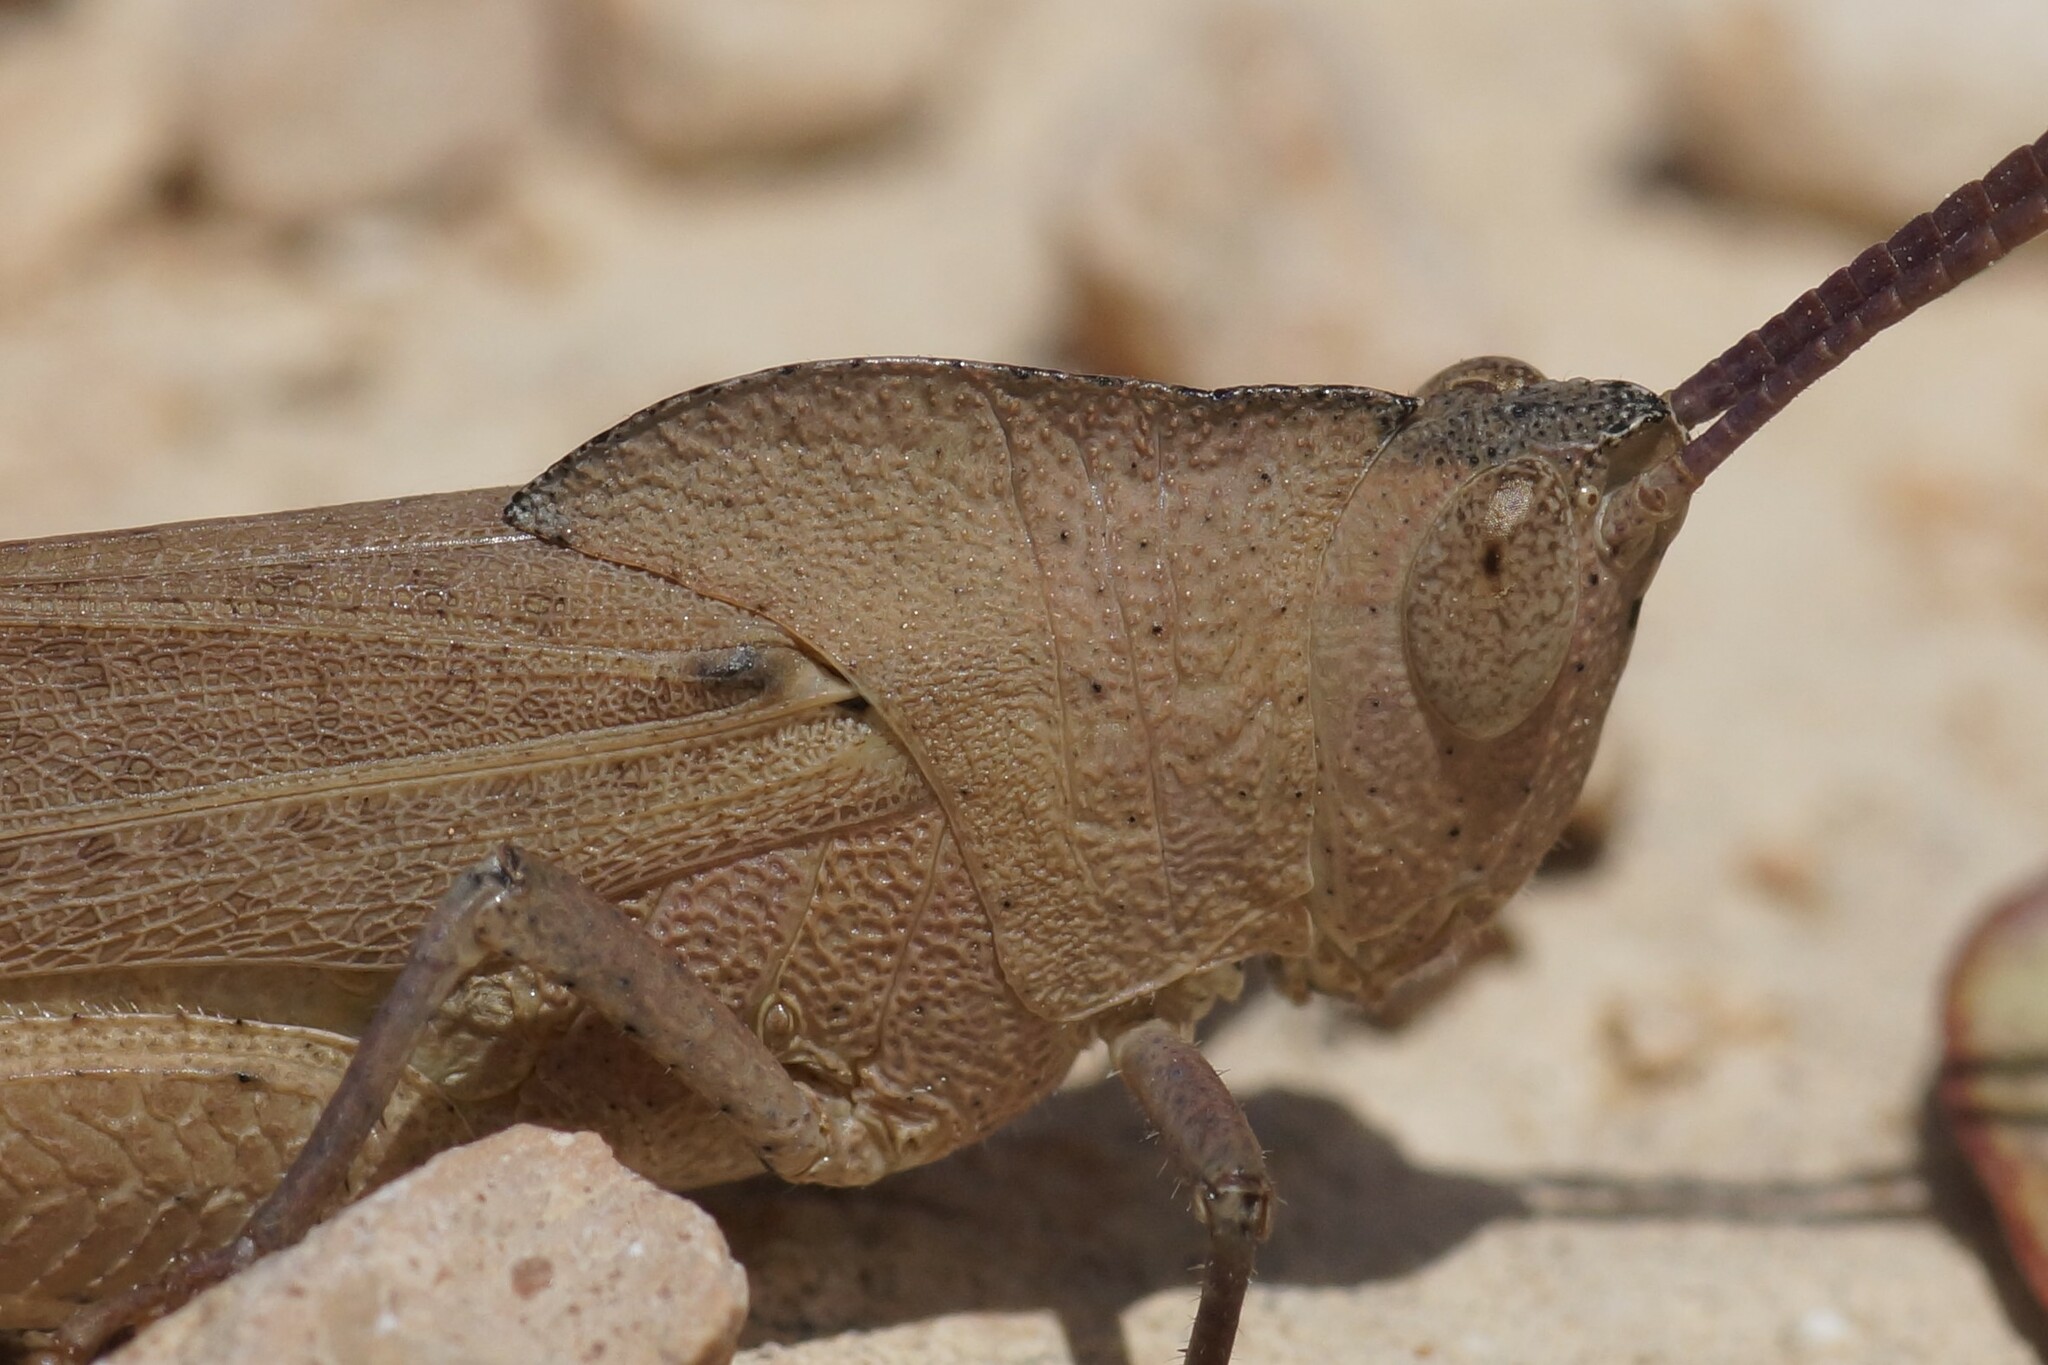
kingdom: Animalia
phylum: Arthropoda
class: Insecta
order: Orthoptera
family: Acrididae
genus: Goniaea
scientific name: Goniaea australasiae
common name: Gumleaf grasshopper
